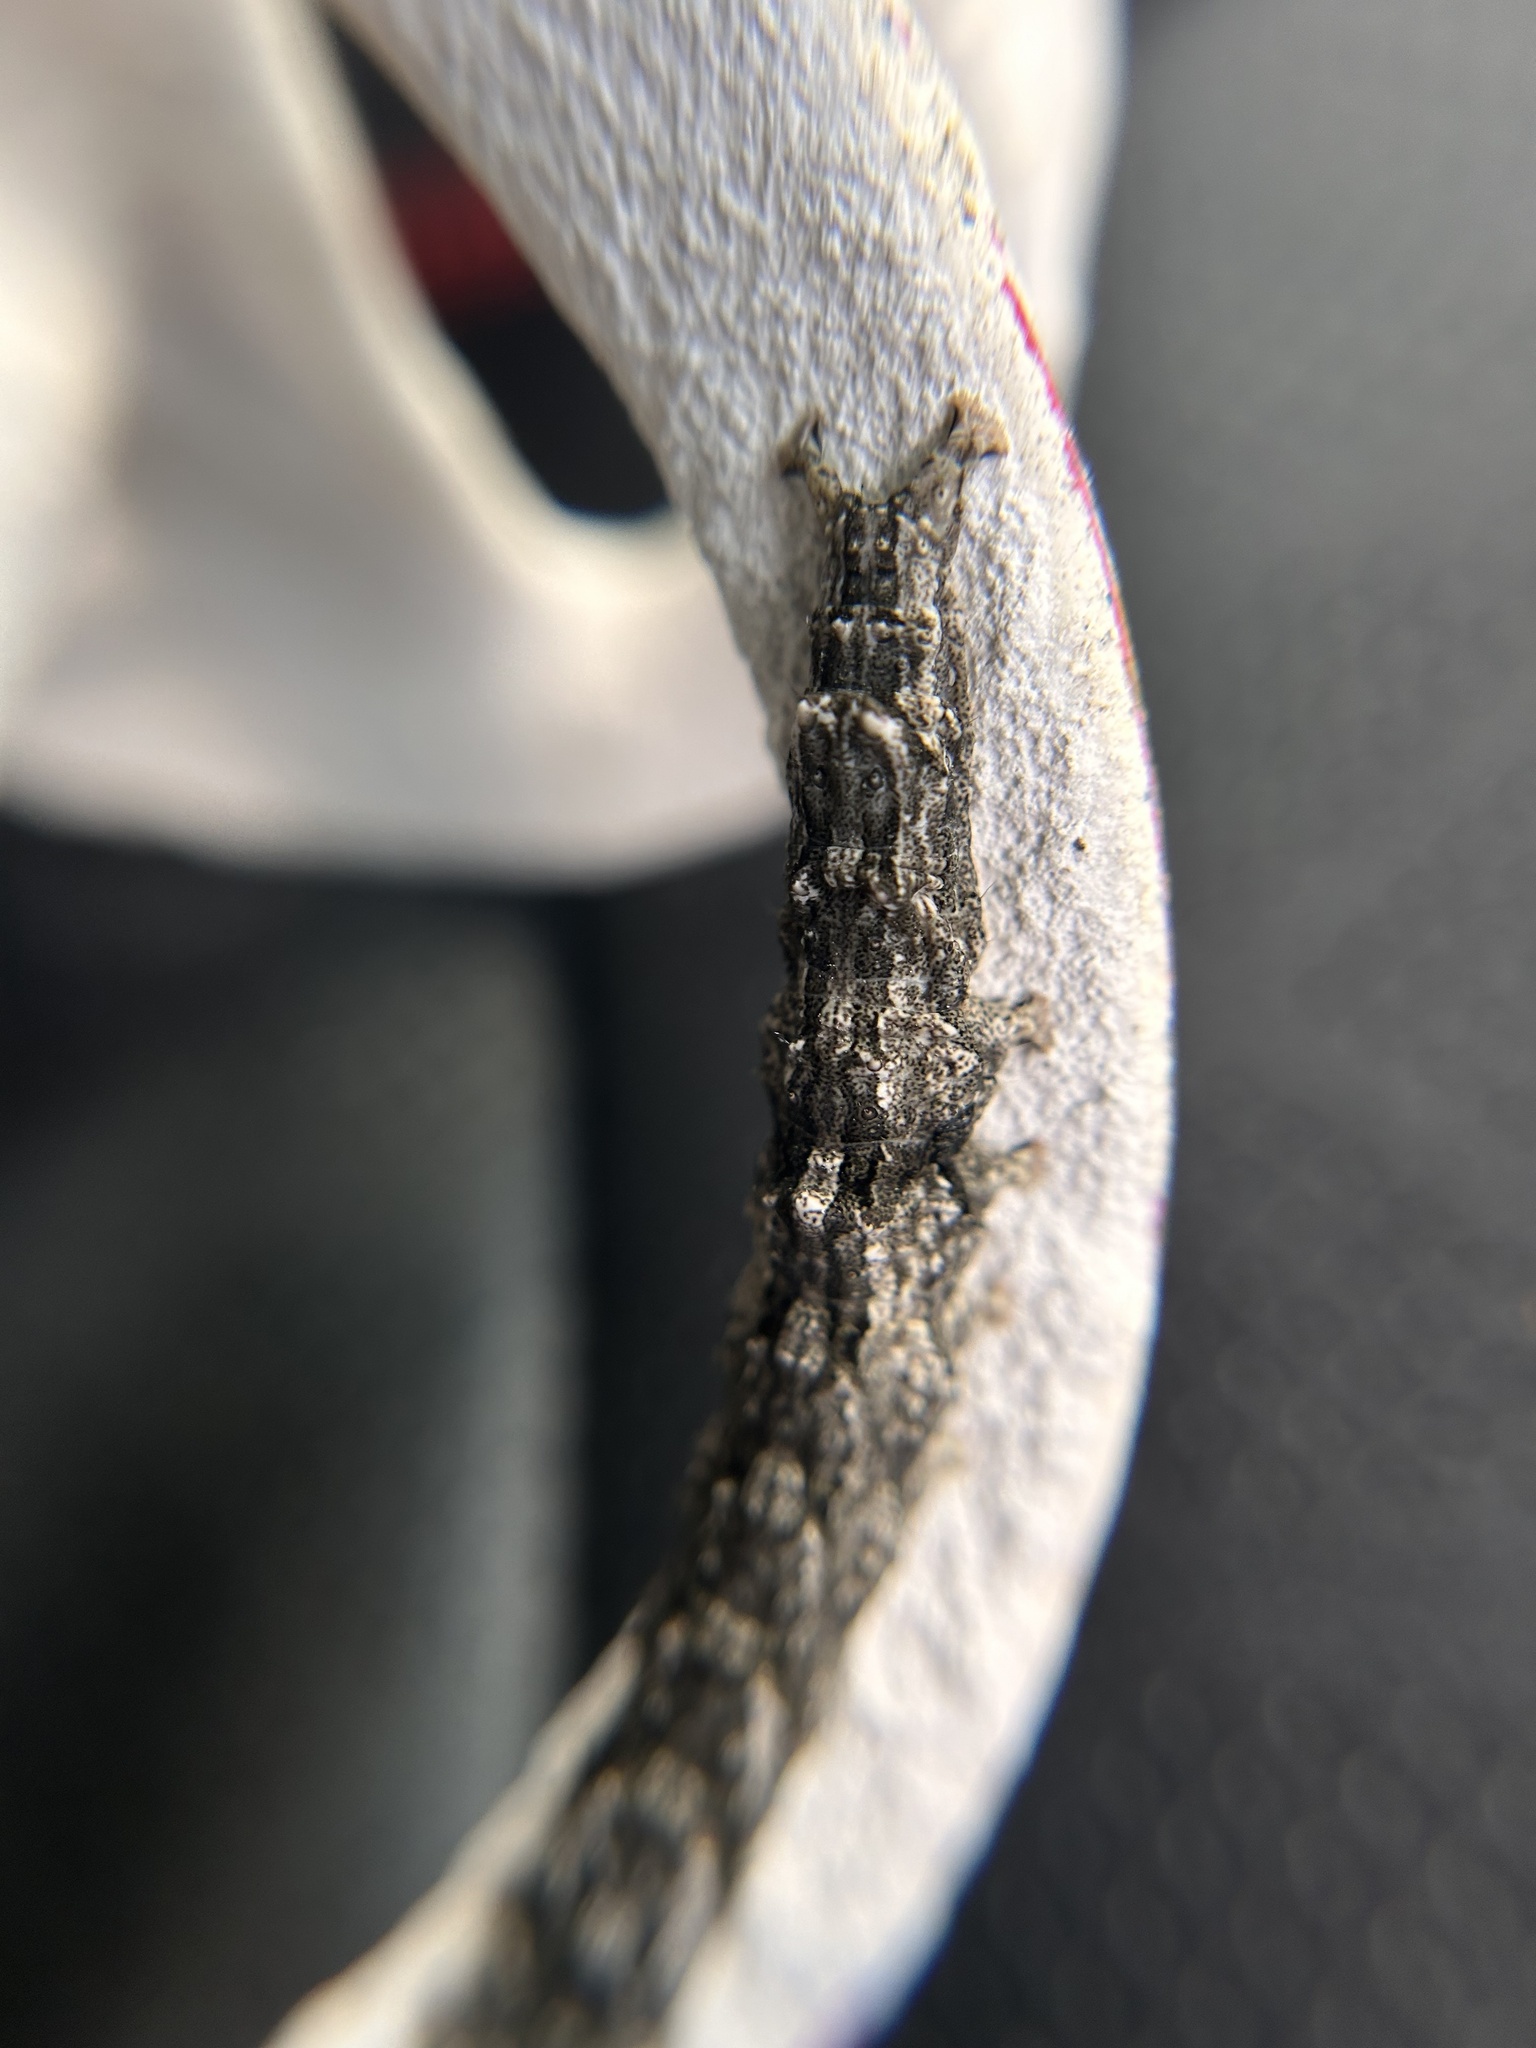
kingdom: Animalia
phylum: Arthropoda
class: Insecta
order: Lepidoptera
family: Erebidae
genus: Catocala
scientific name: Catocala connubialis
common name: Connubial underwing
